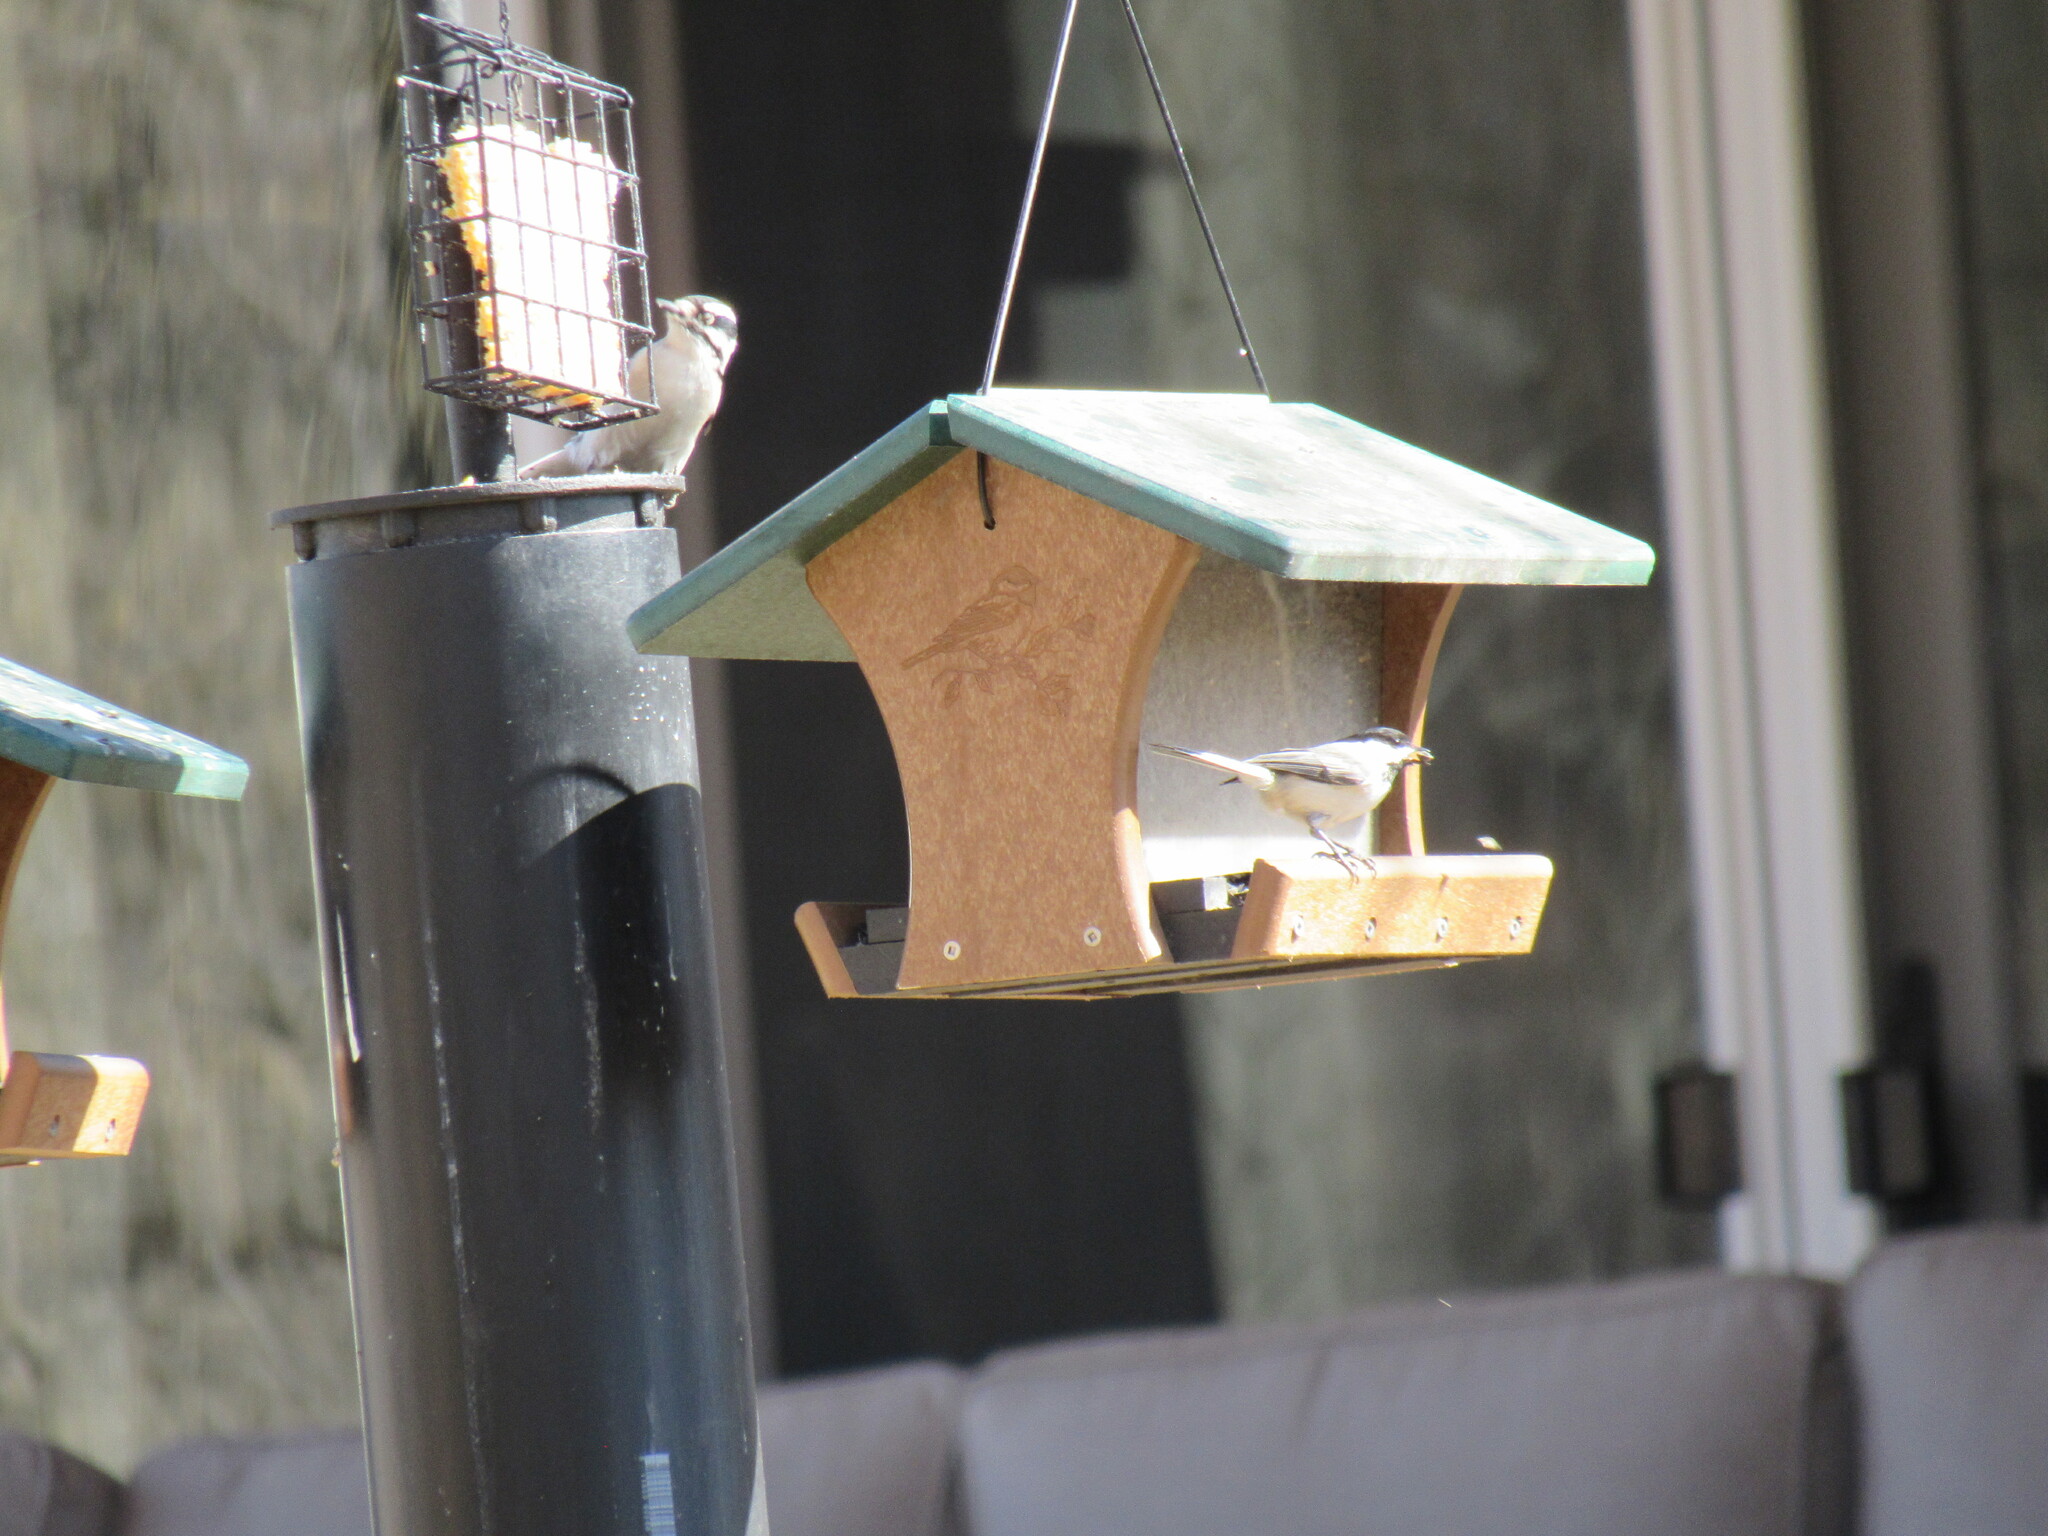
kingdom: Animalia
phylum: Chordata
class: Aves
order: Passeriformes
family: Paridae
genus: Poecile
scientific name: Poecile atricapillus
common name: Black-capped chickadee
